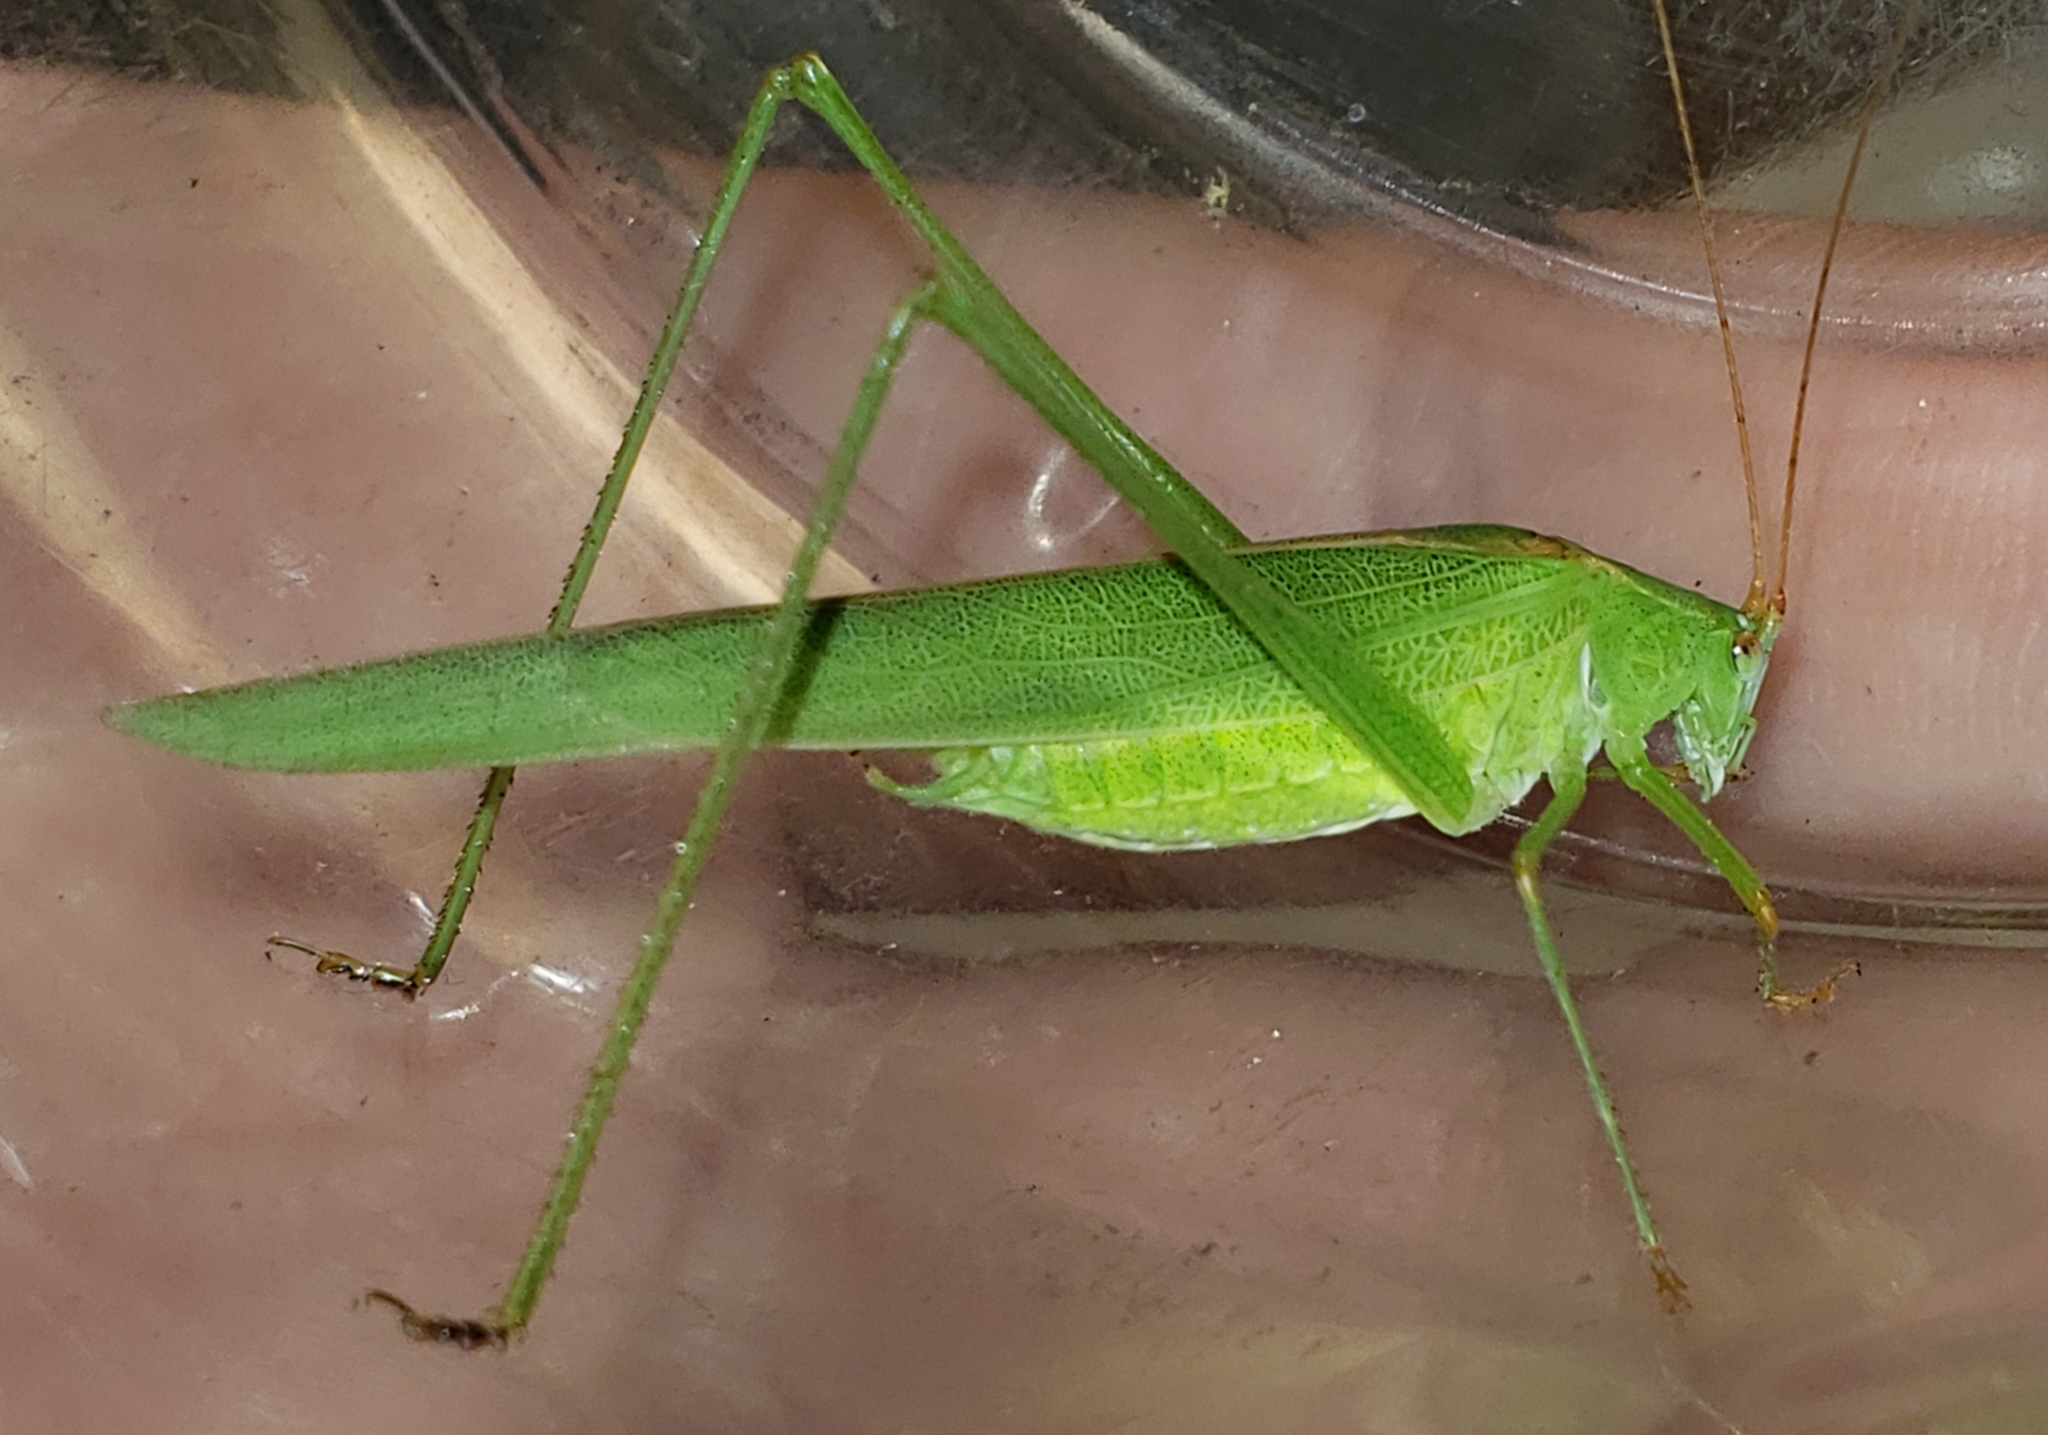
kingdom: Animalia
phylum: Arthropoda
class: Insecta
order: Orthoptera
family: Tettigoniidae
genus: Phaneroptera
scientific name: Phaneroptera
